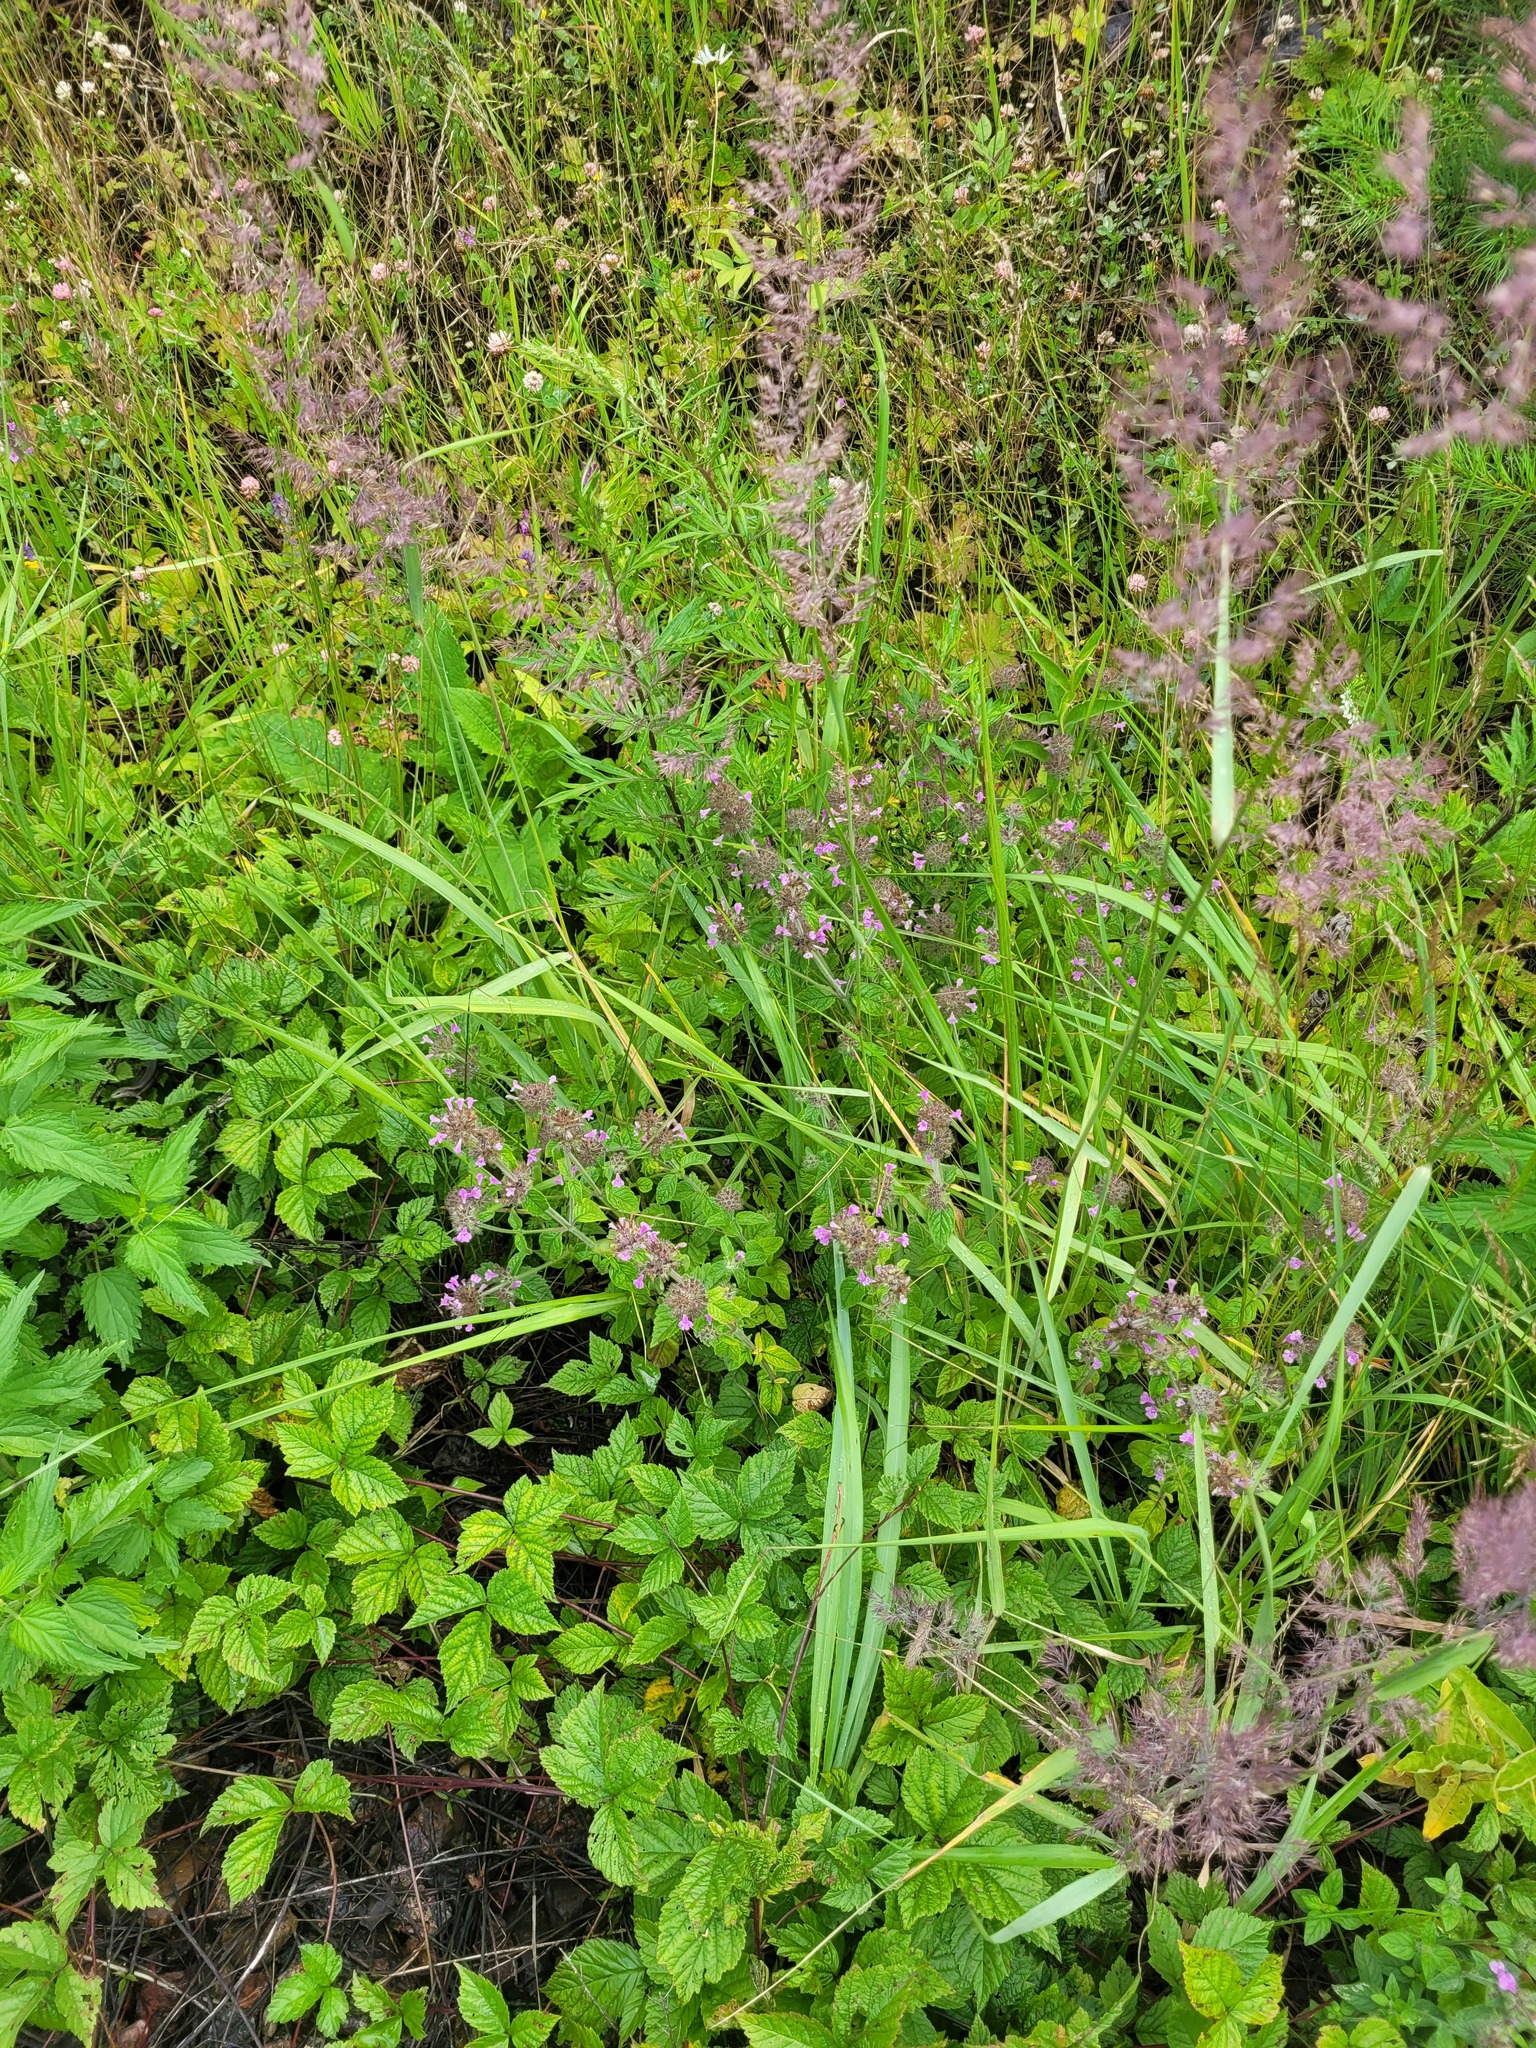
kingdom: Plantae
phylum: Tracheophyta
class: Magnoliopsida
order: Lamiales
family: Lamiaceae
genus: Clinopodium
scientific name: Clinopodium vulgare
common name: Wild basil
